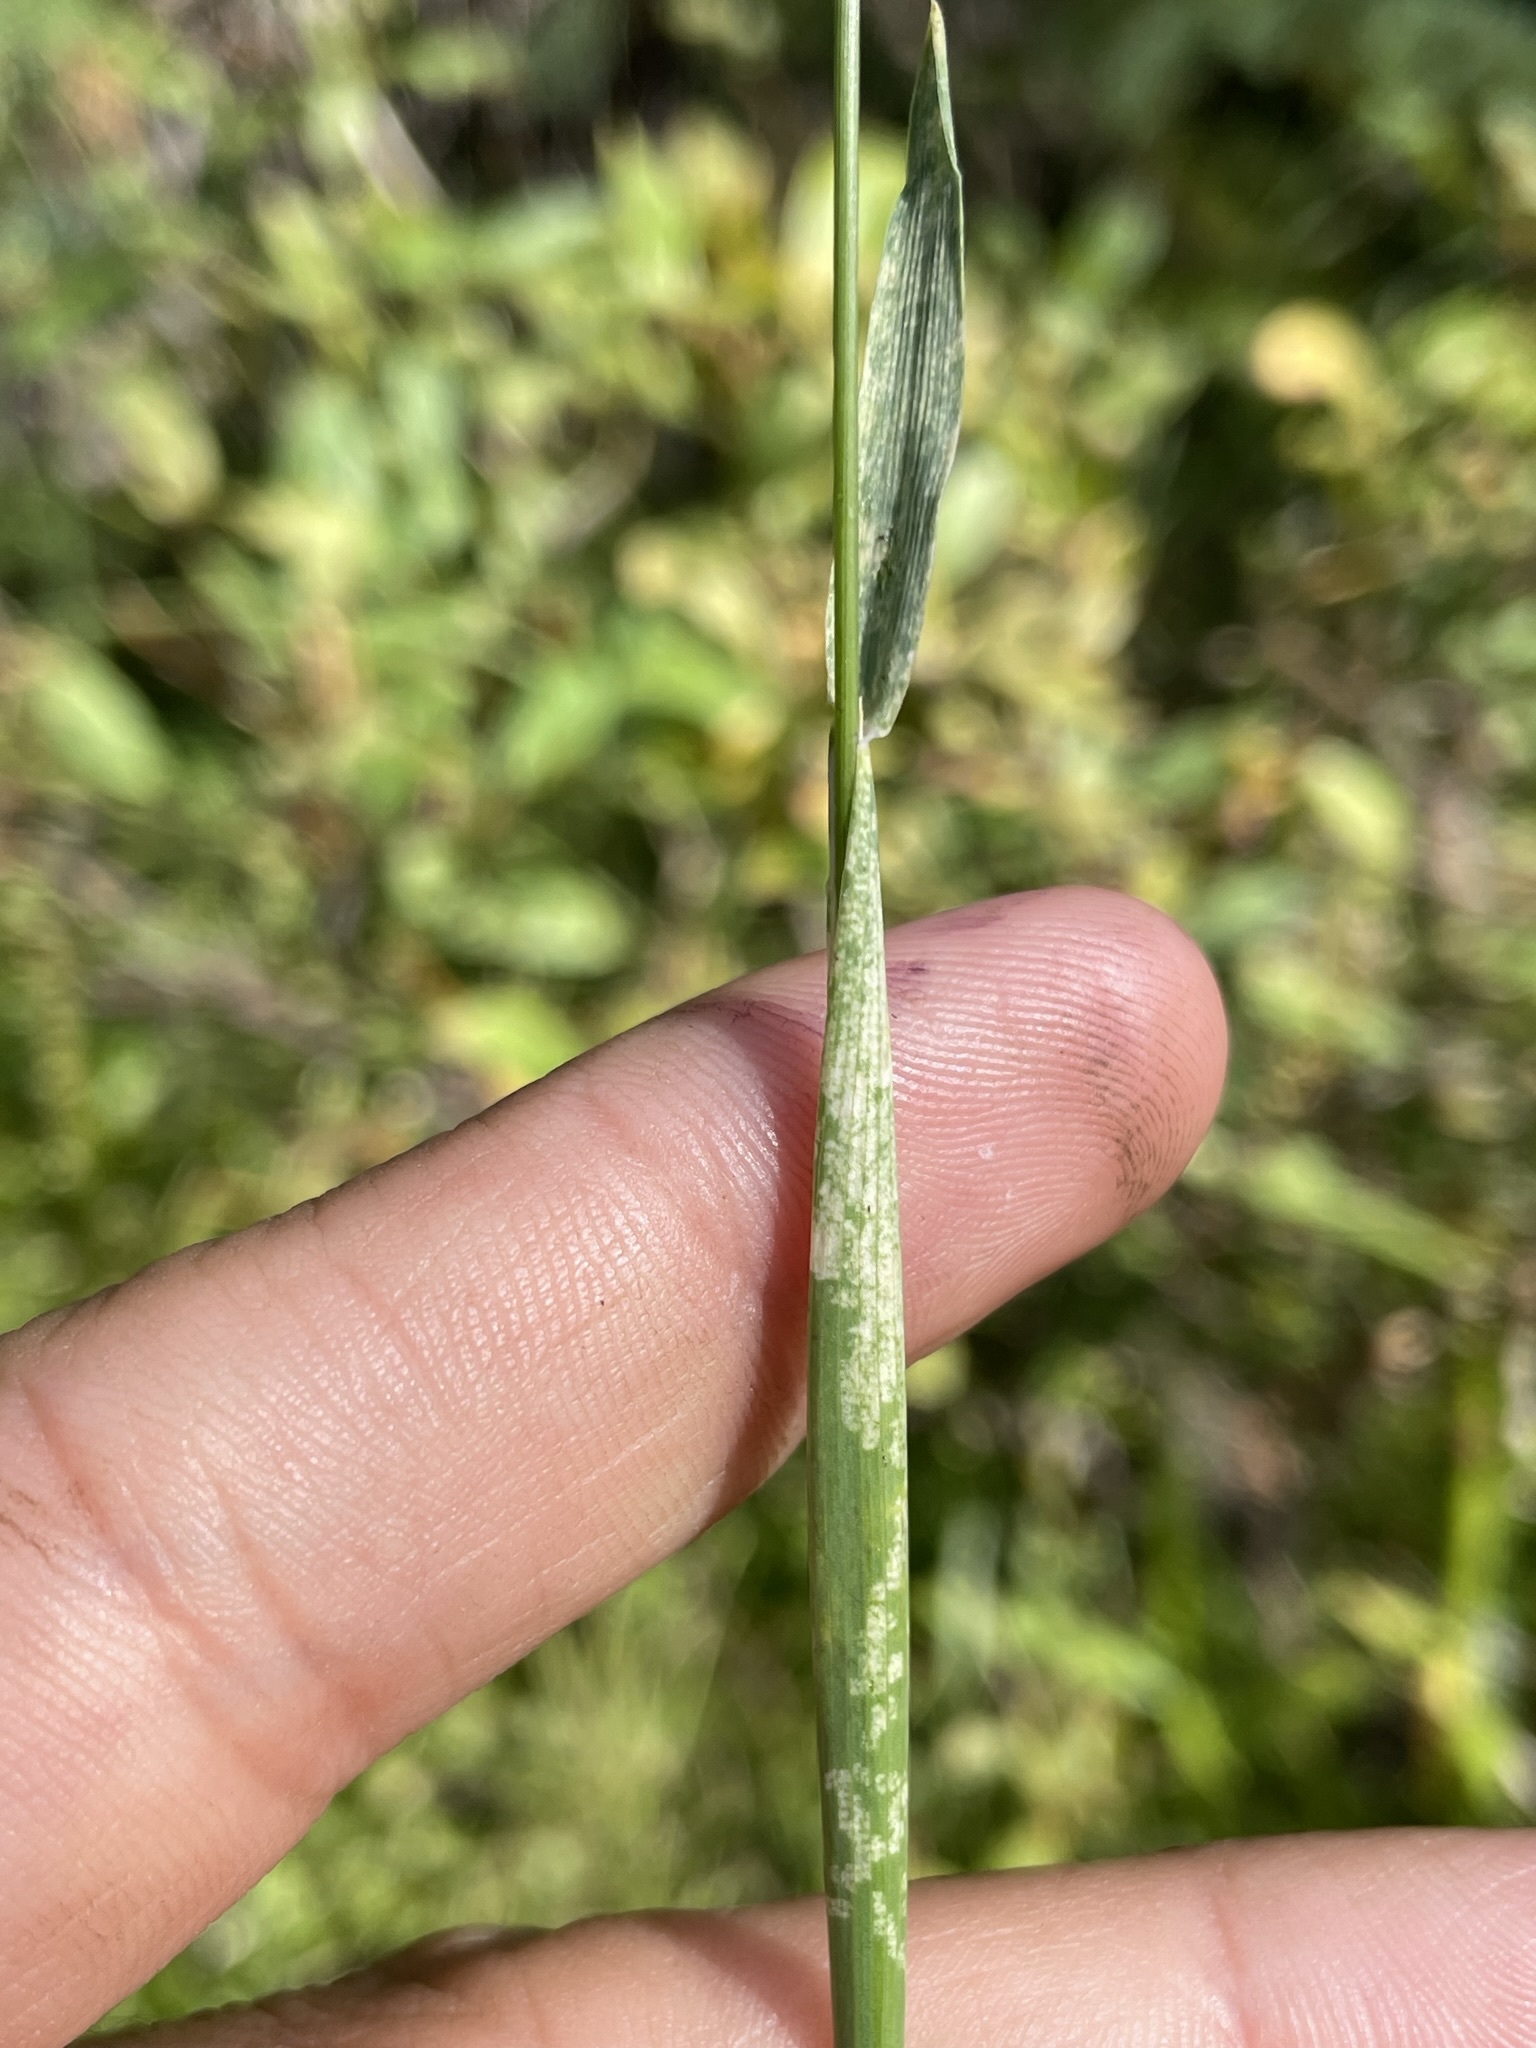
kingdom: Plantae
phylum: Tracheophyta
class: Liliopsida
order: Poales
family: Poaceae
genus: Phleum
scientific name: Phleum alpinum
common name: Alpine cat's-tail
